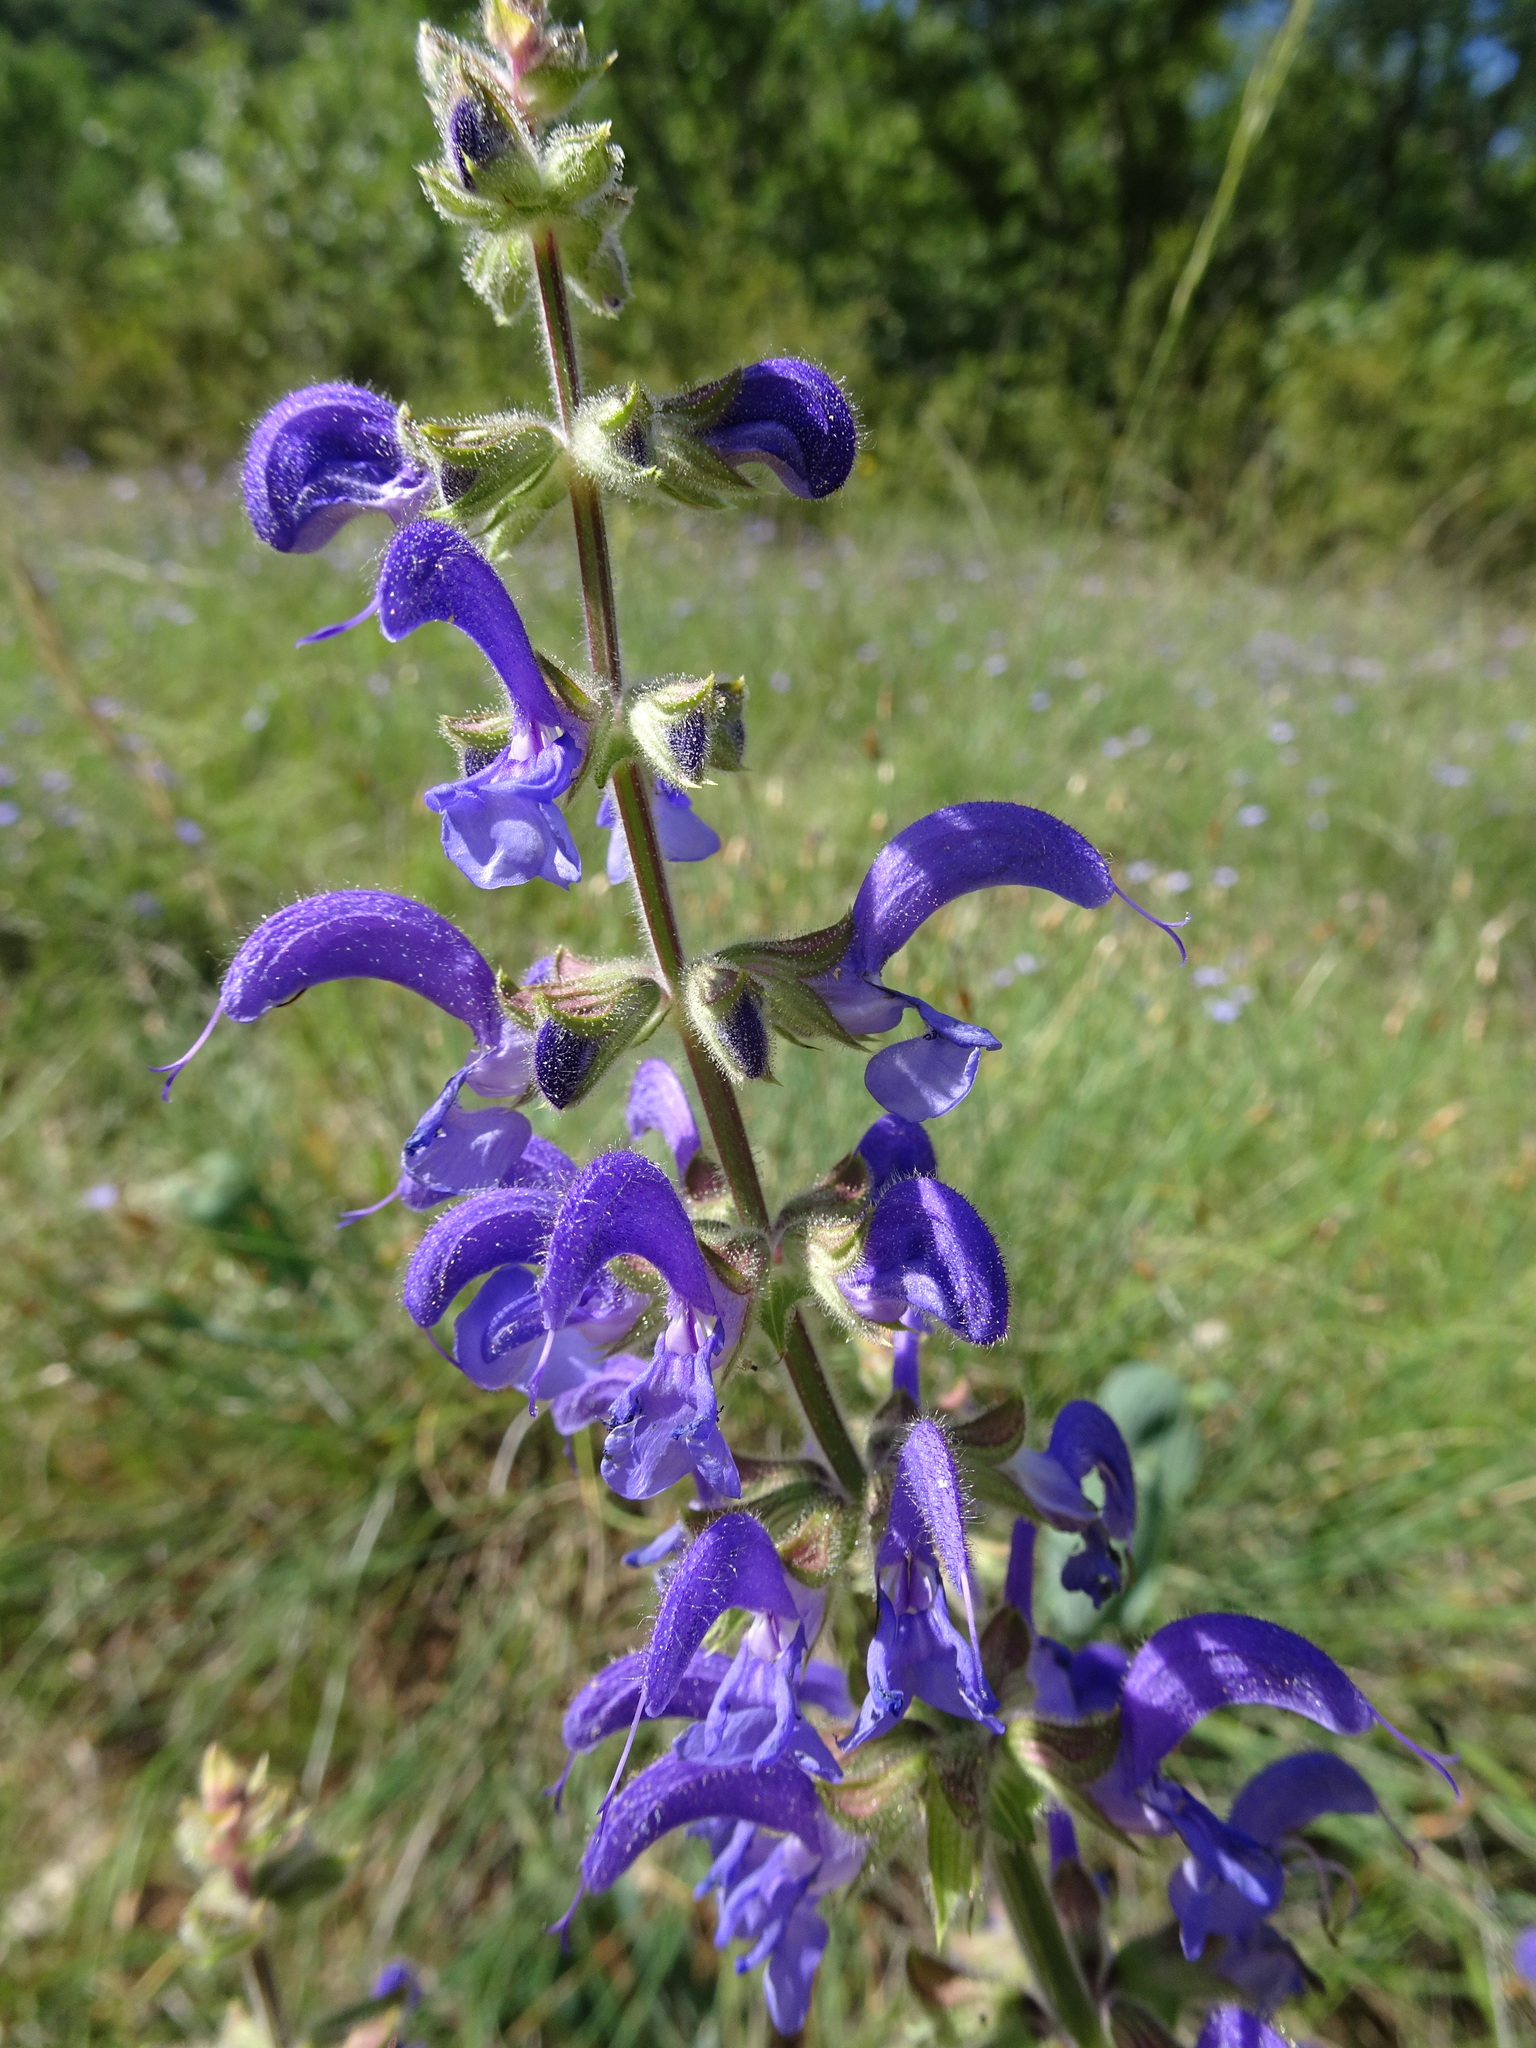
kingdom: Plantae
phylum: Tracheophyta
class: Magnoliopsida
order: Lamiales
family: Lamiaceae
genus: Salvia
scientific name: Salvia pratensis
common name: Meadow sage
